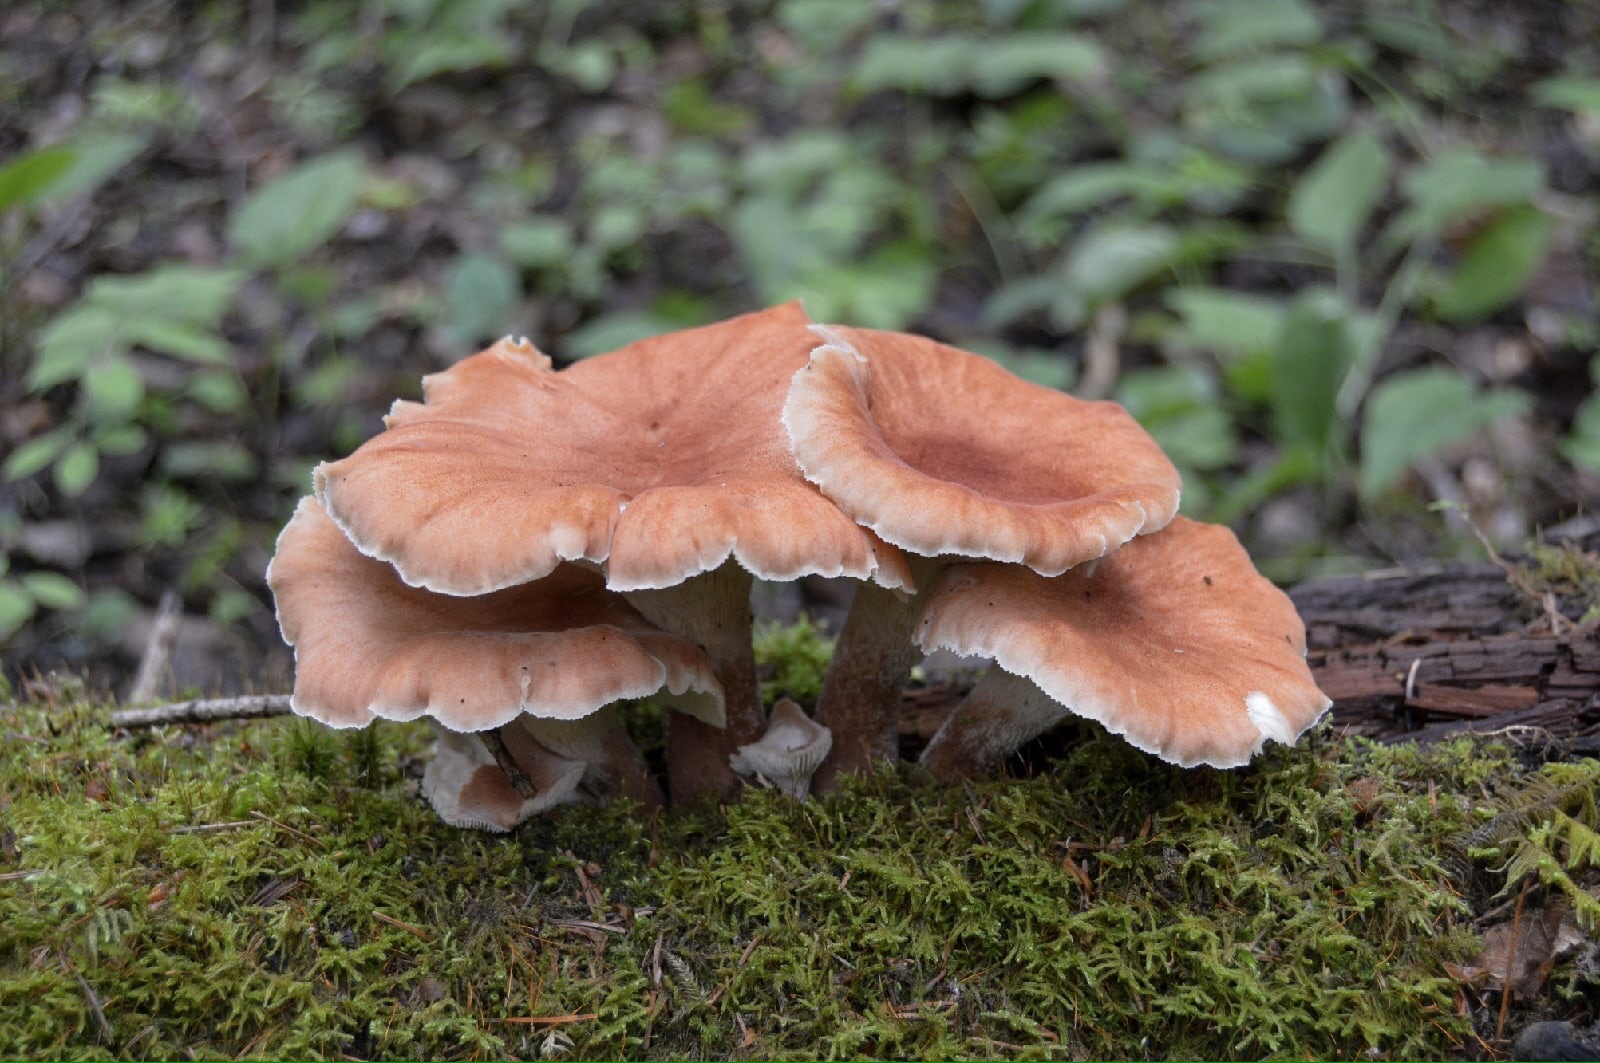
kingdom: Fungi
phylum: Basidiomycota
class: Agaricomycetes
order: Gloeophyllales
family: Gloeophyllaceae
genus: Neolentinus
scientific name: Neolentinus cyathiformis
